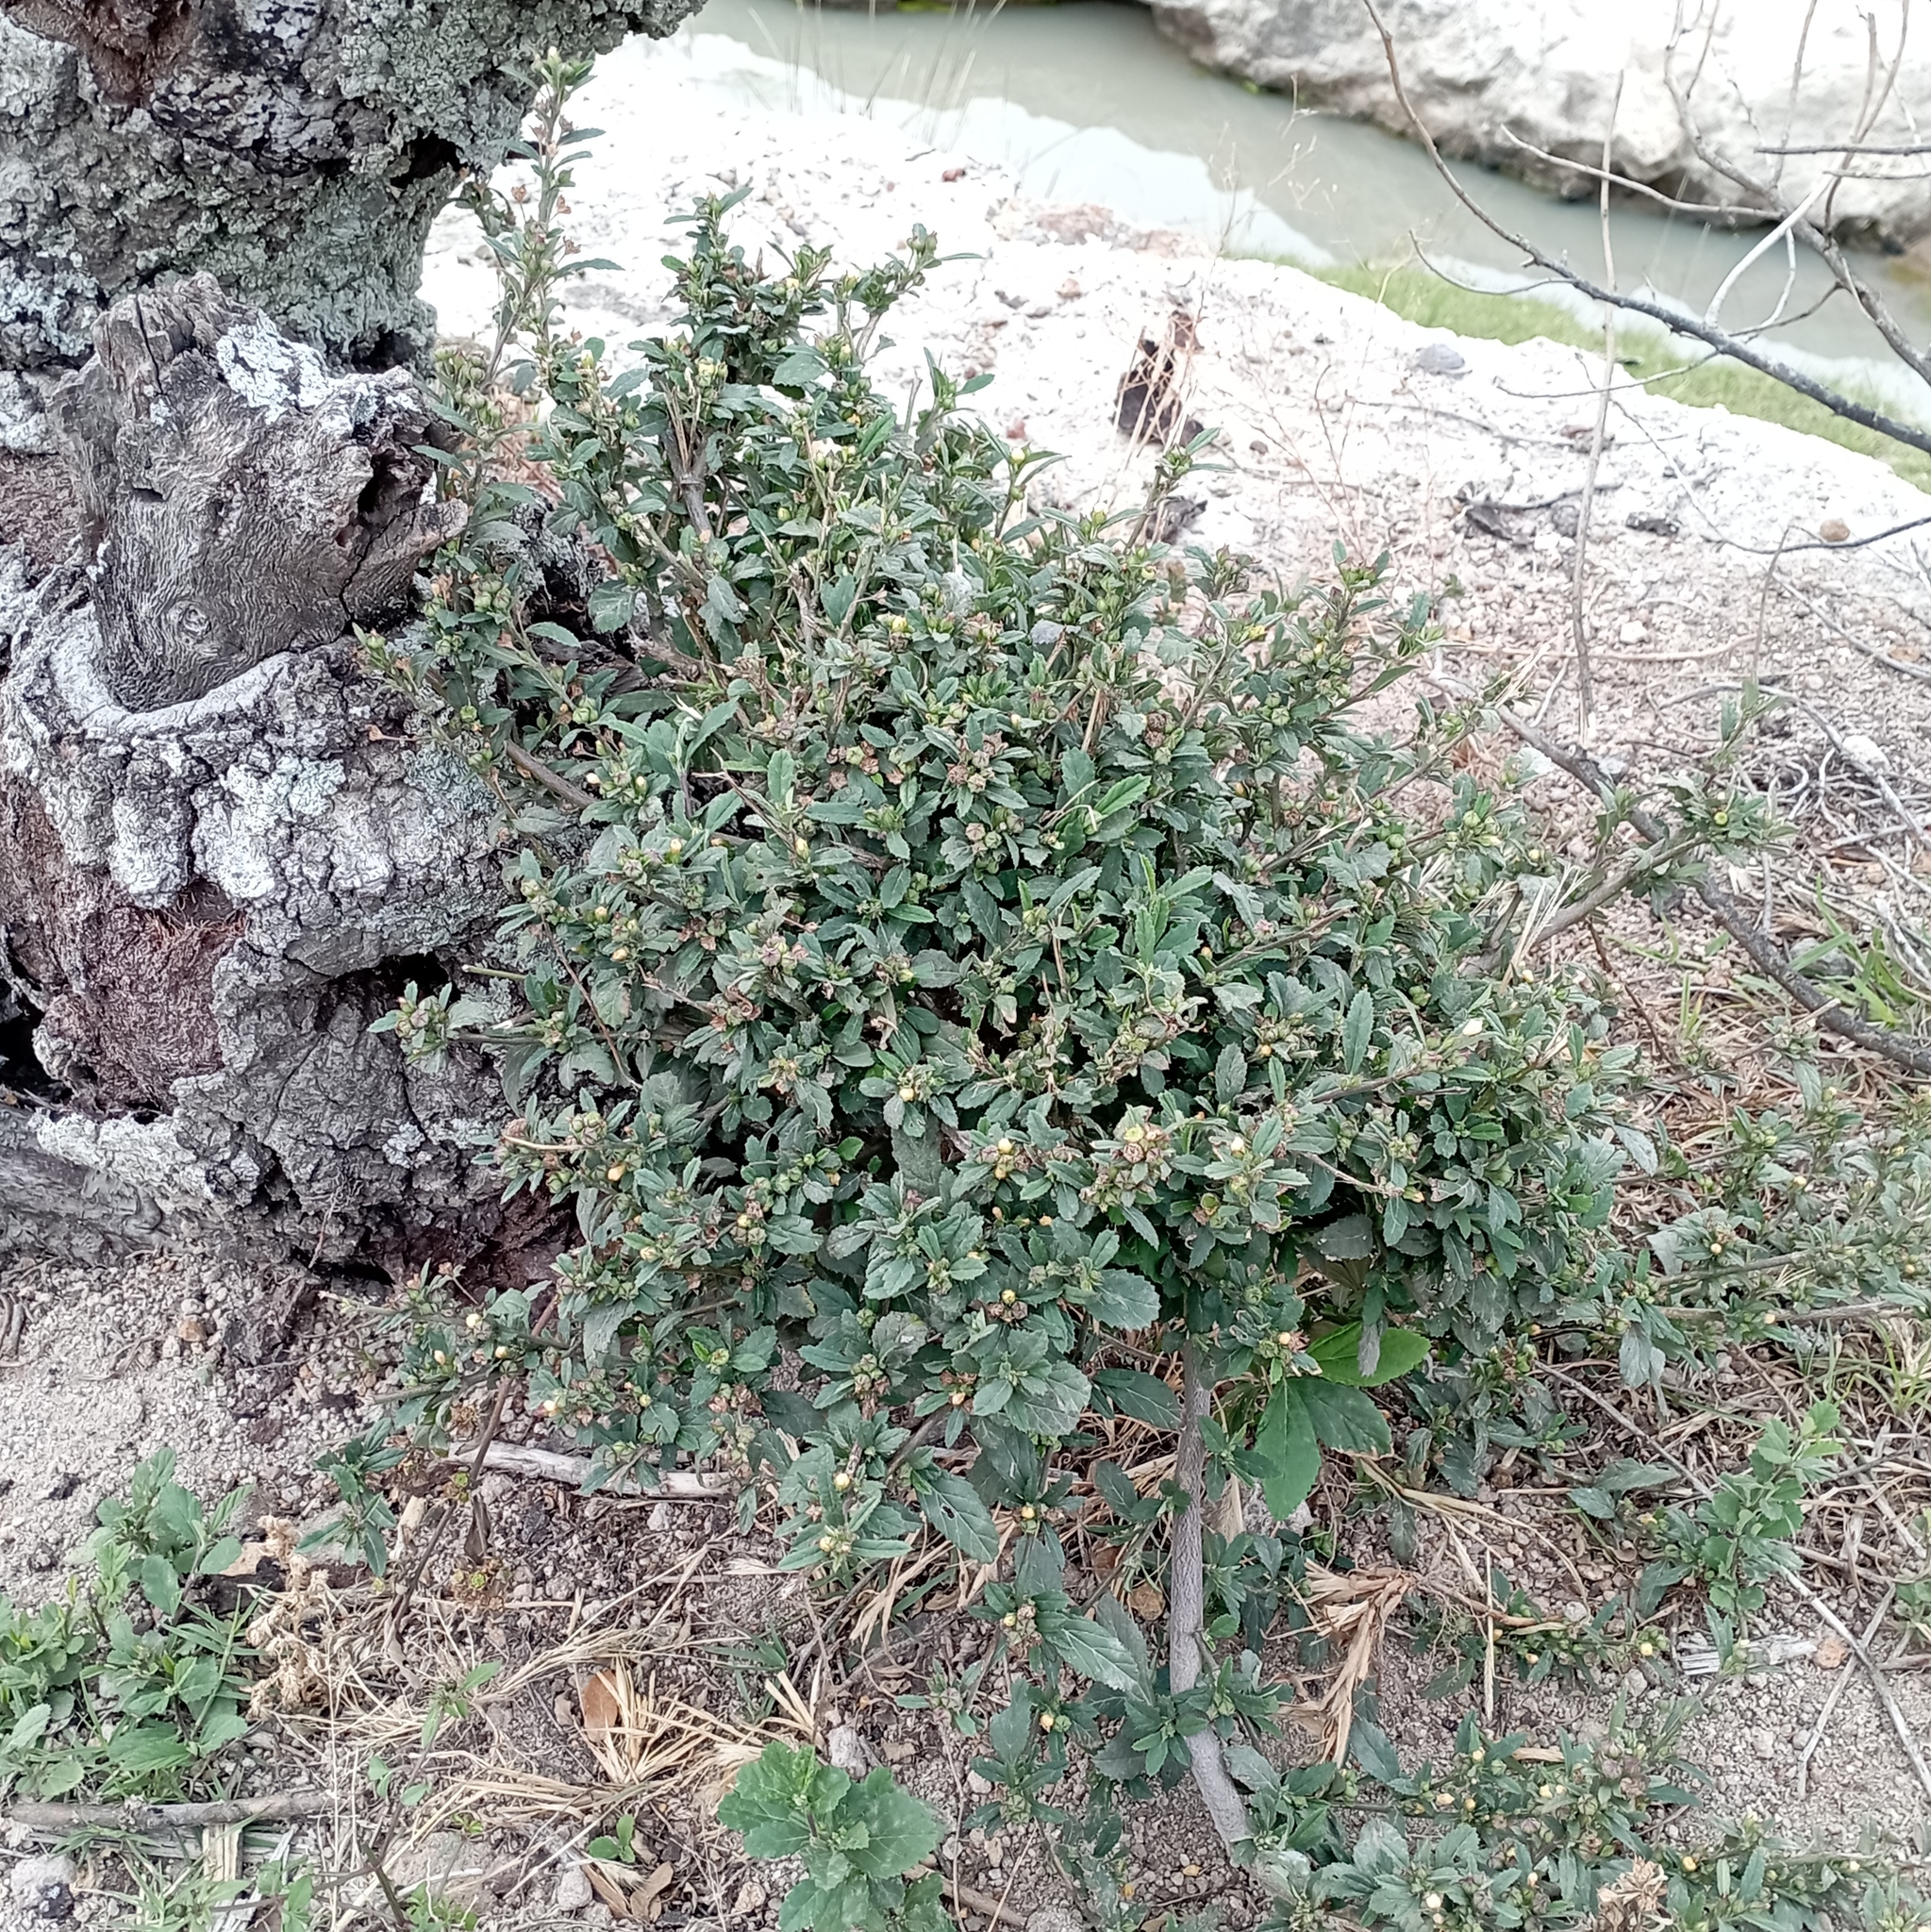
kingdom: Plantae
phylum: Tracheophyta
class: Magnoliopsida
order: Malvales
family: Malvaceae
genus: Sida
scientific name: Sida rhombifolia
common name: Queensland-hemp
